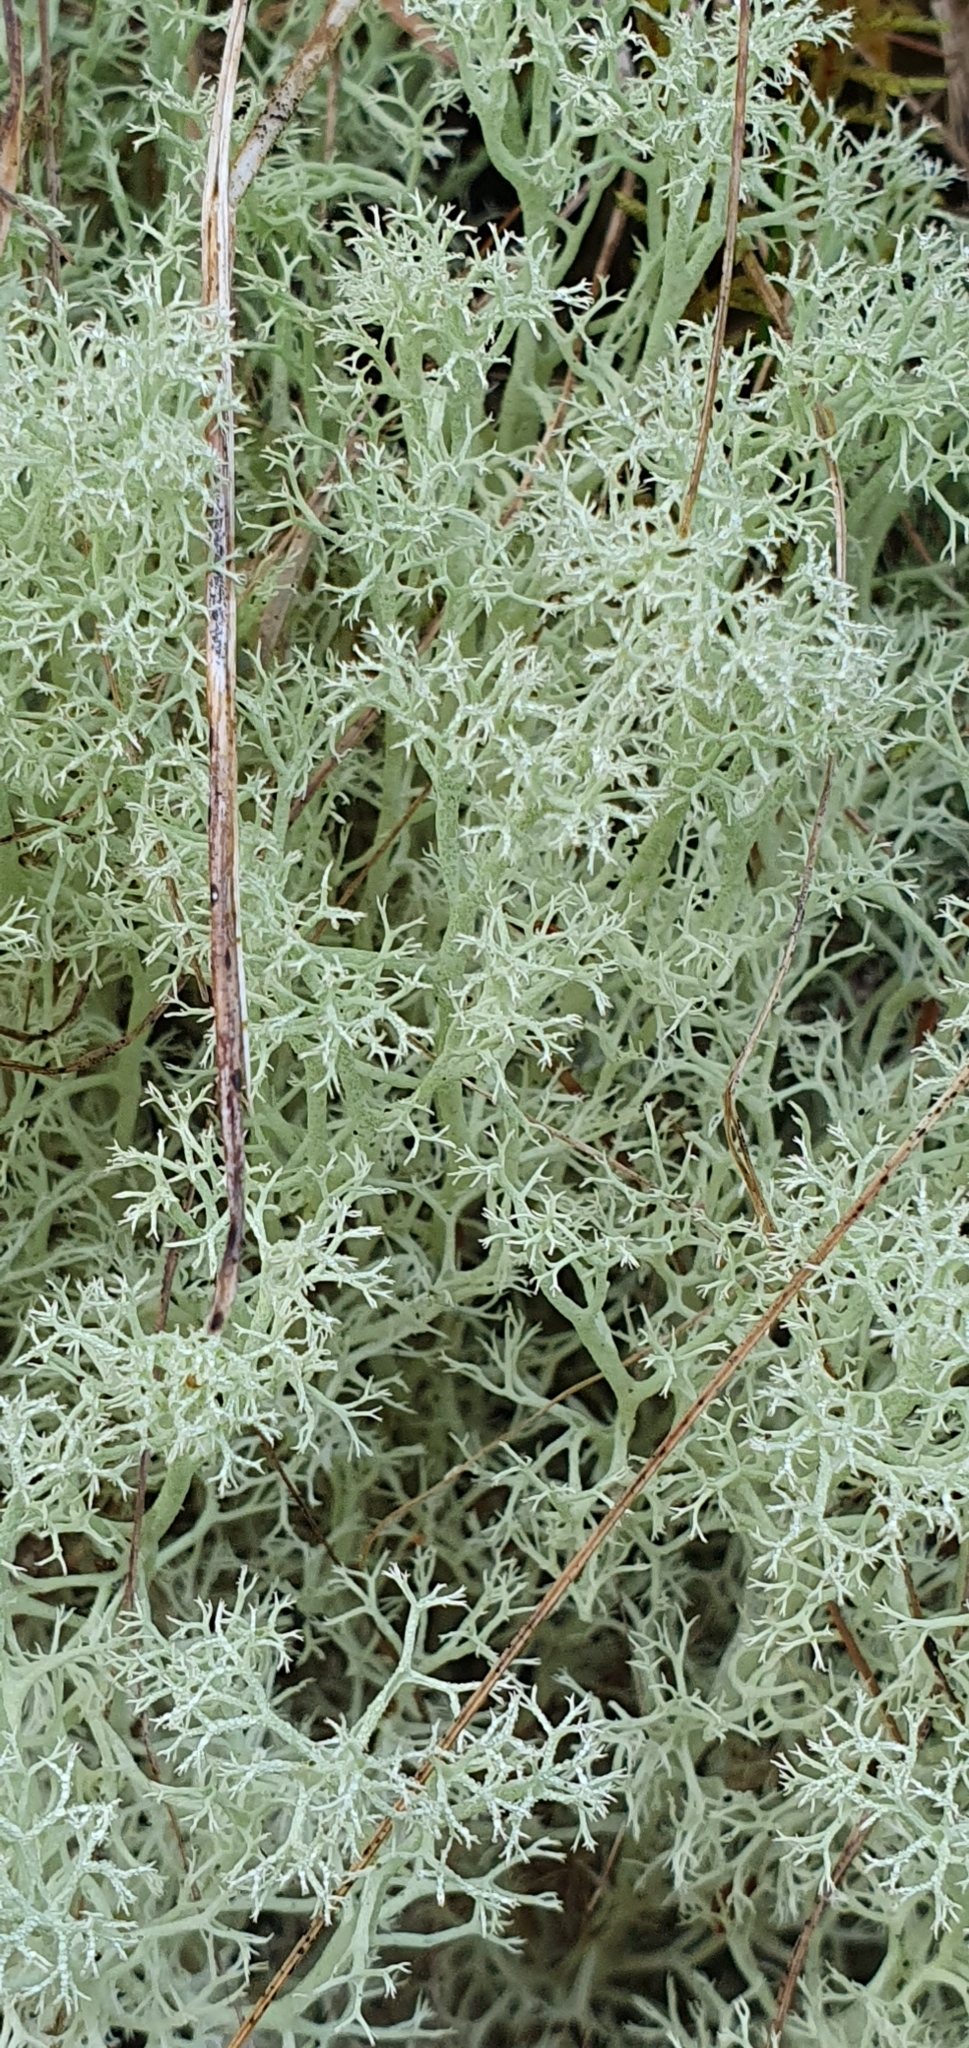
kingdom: Fungi
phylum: Ascomycota
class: Lecanoromycetes
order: Lecanorales
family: Cladoniaceae
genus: Cladonia
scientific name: Cladonia portentosa
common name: Reindeer lichen
